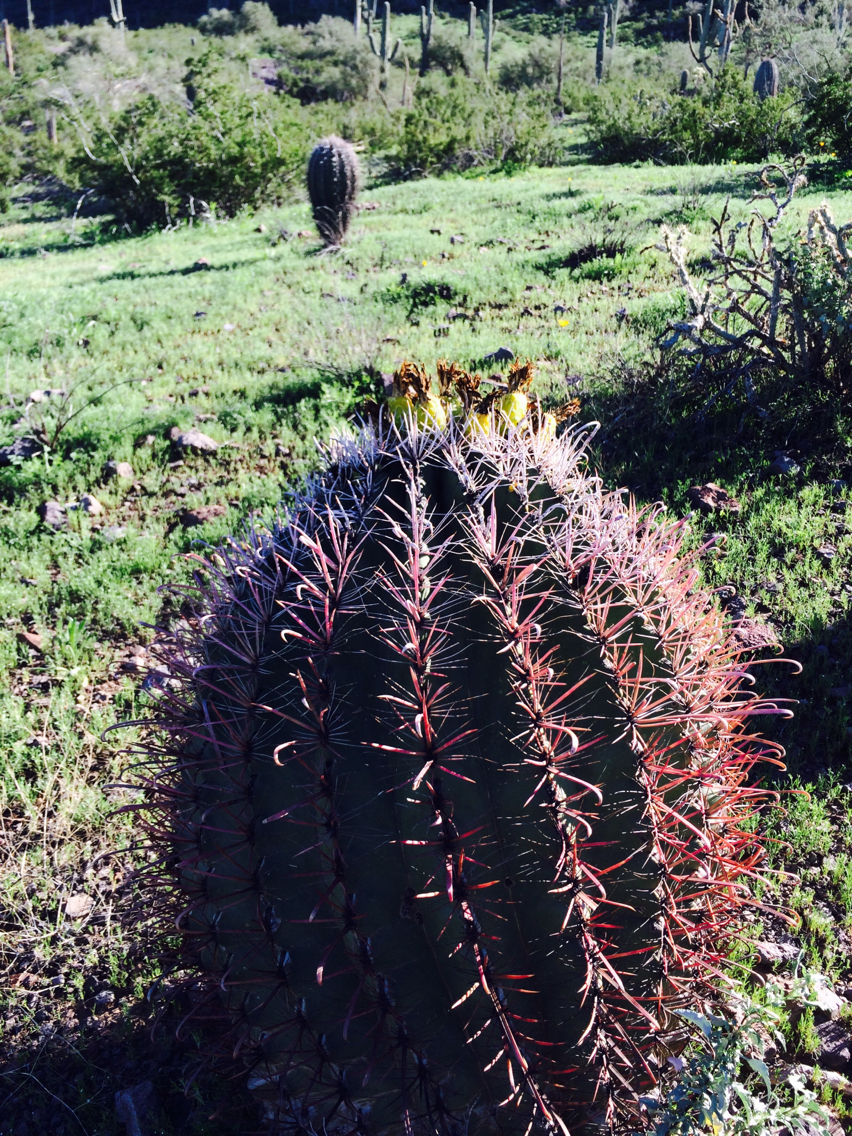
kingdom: Plantae
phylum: Tracheophyta
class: Magnoliopsida
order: Caryophyllales
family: Cactaceae
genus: Ferocactus
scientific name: Ferocactus cylindraceus
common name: California barrel cactus
